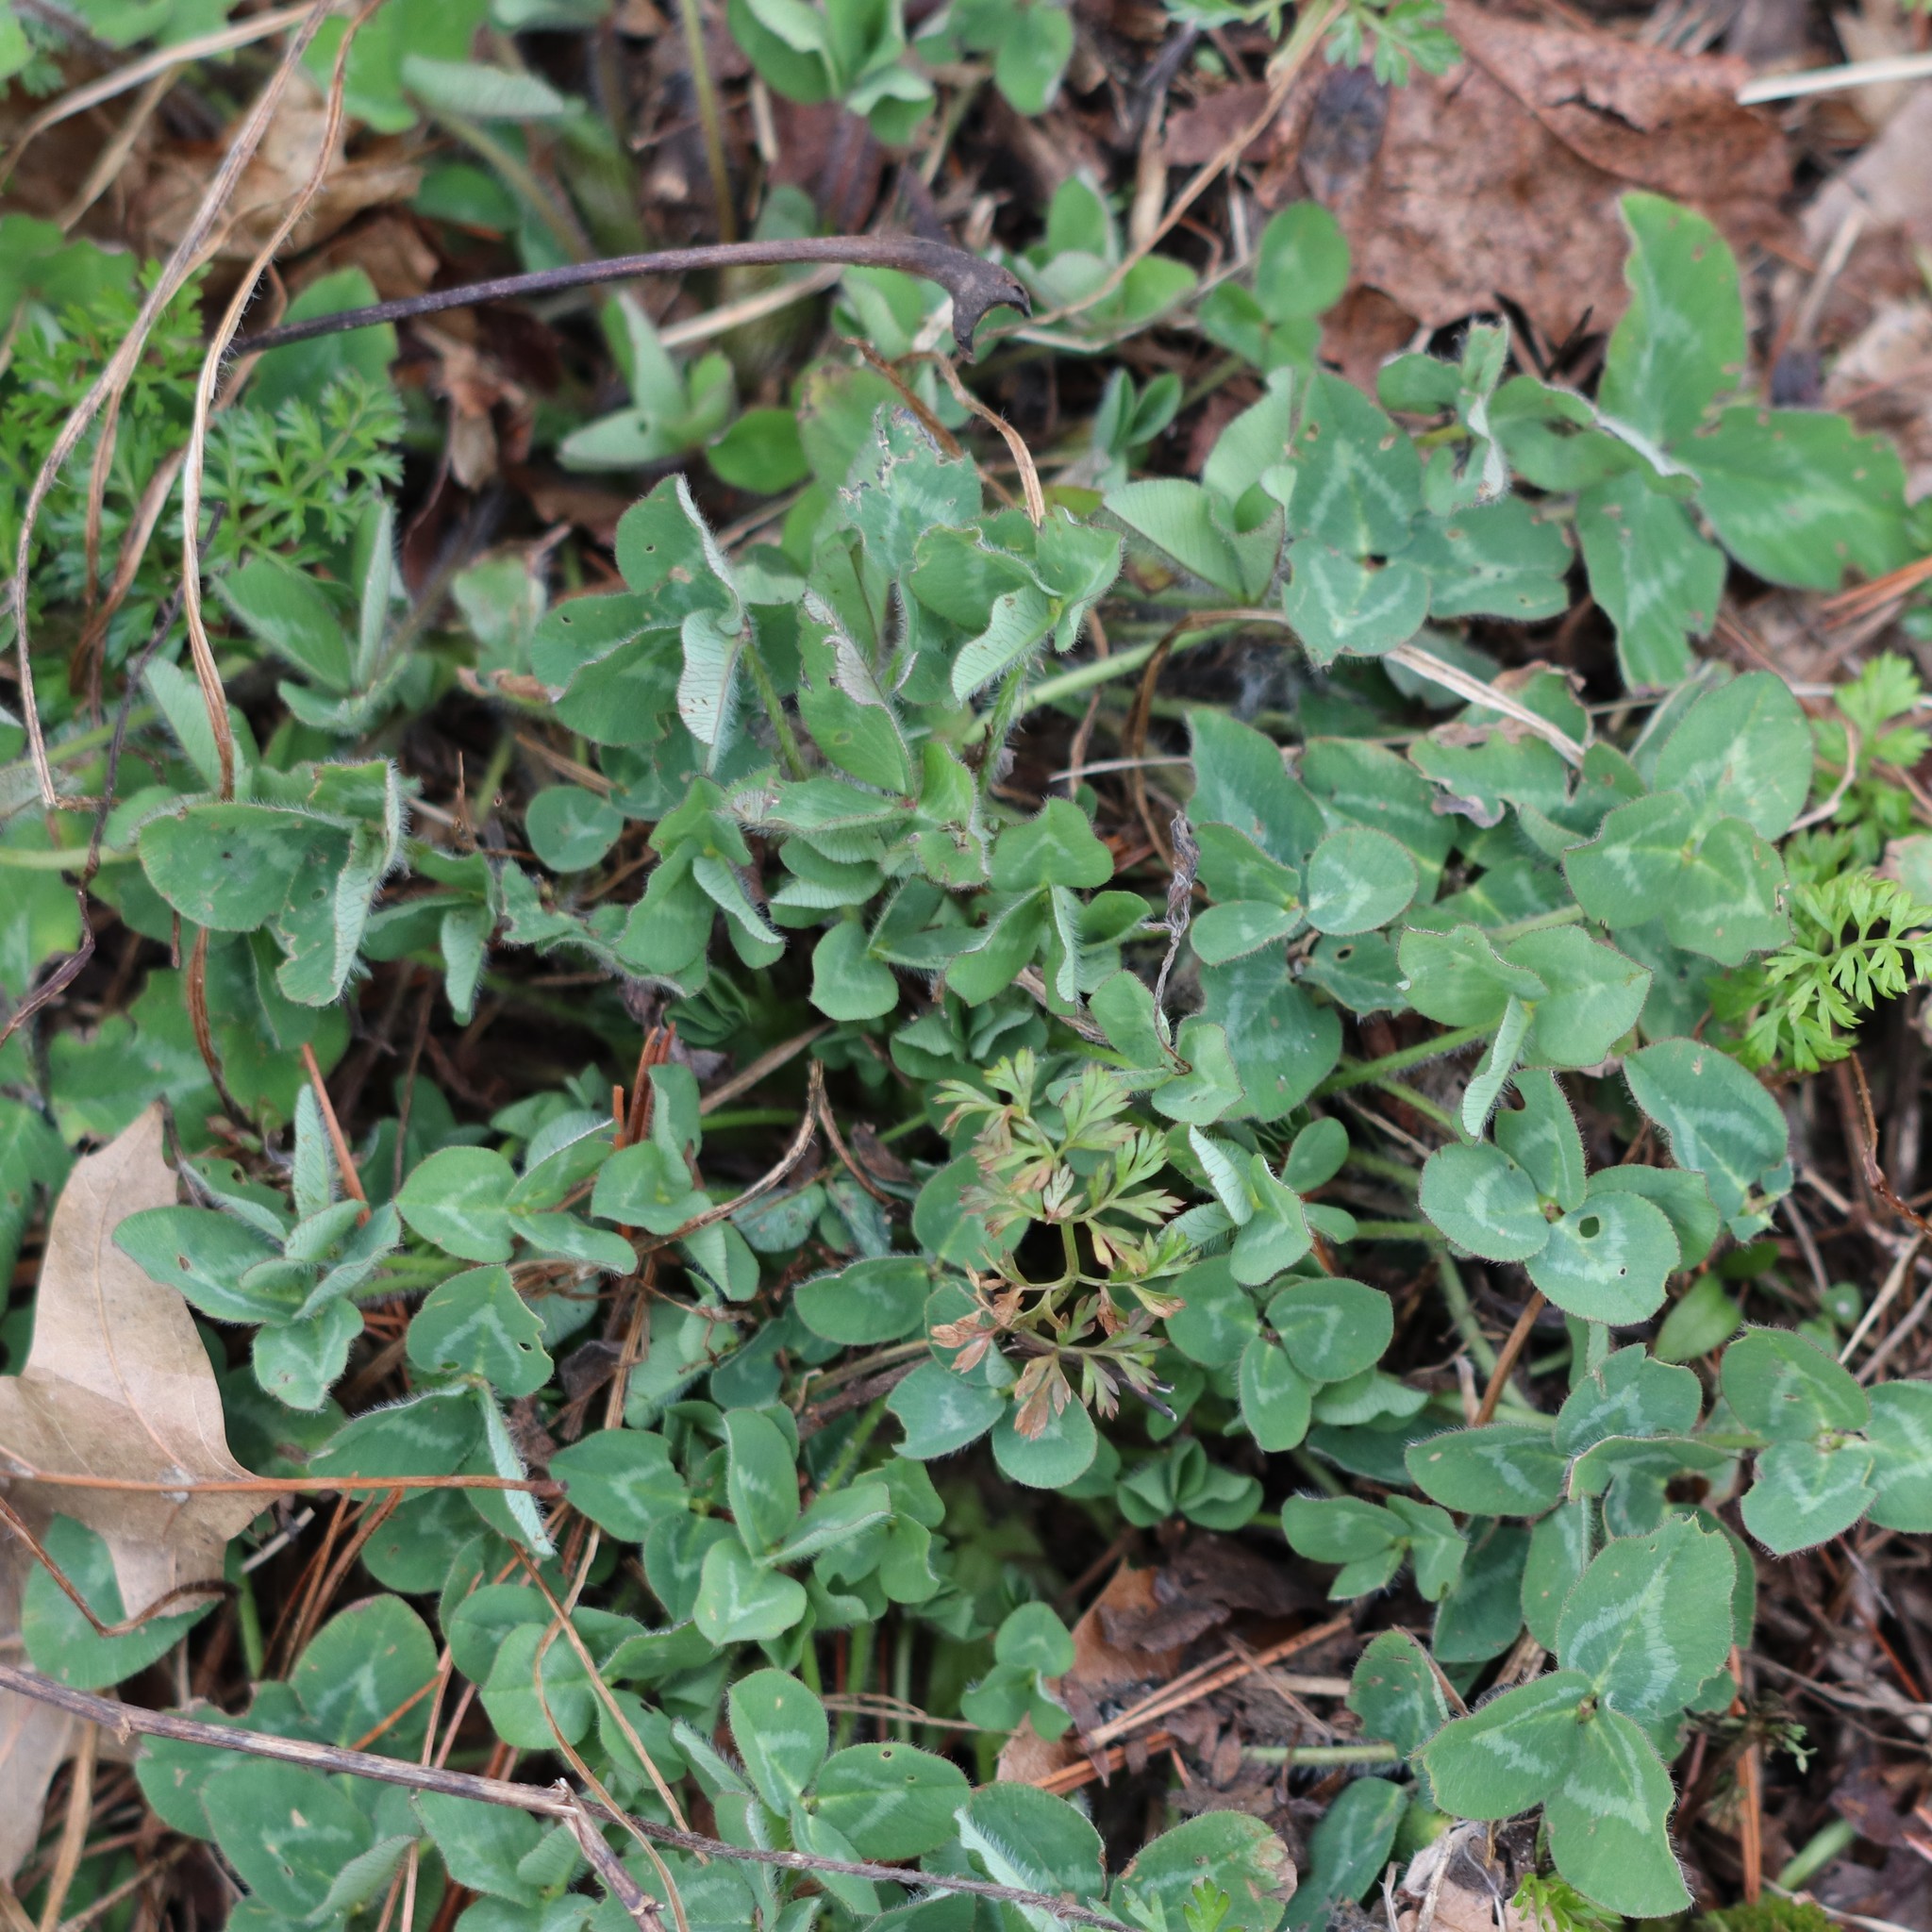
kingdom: Plantae
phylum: Tracheophyta
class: Magnoliopsida
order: Fabales
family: Fabaceae
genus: Trifolium
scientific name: Trifolium pratense
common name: Red clover
